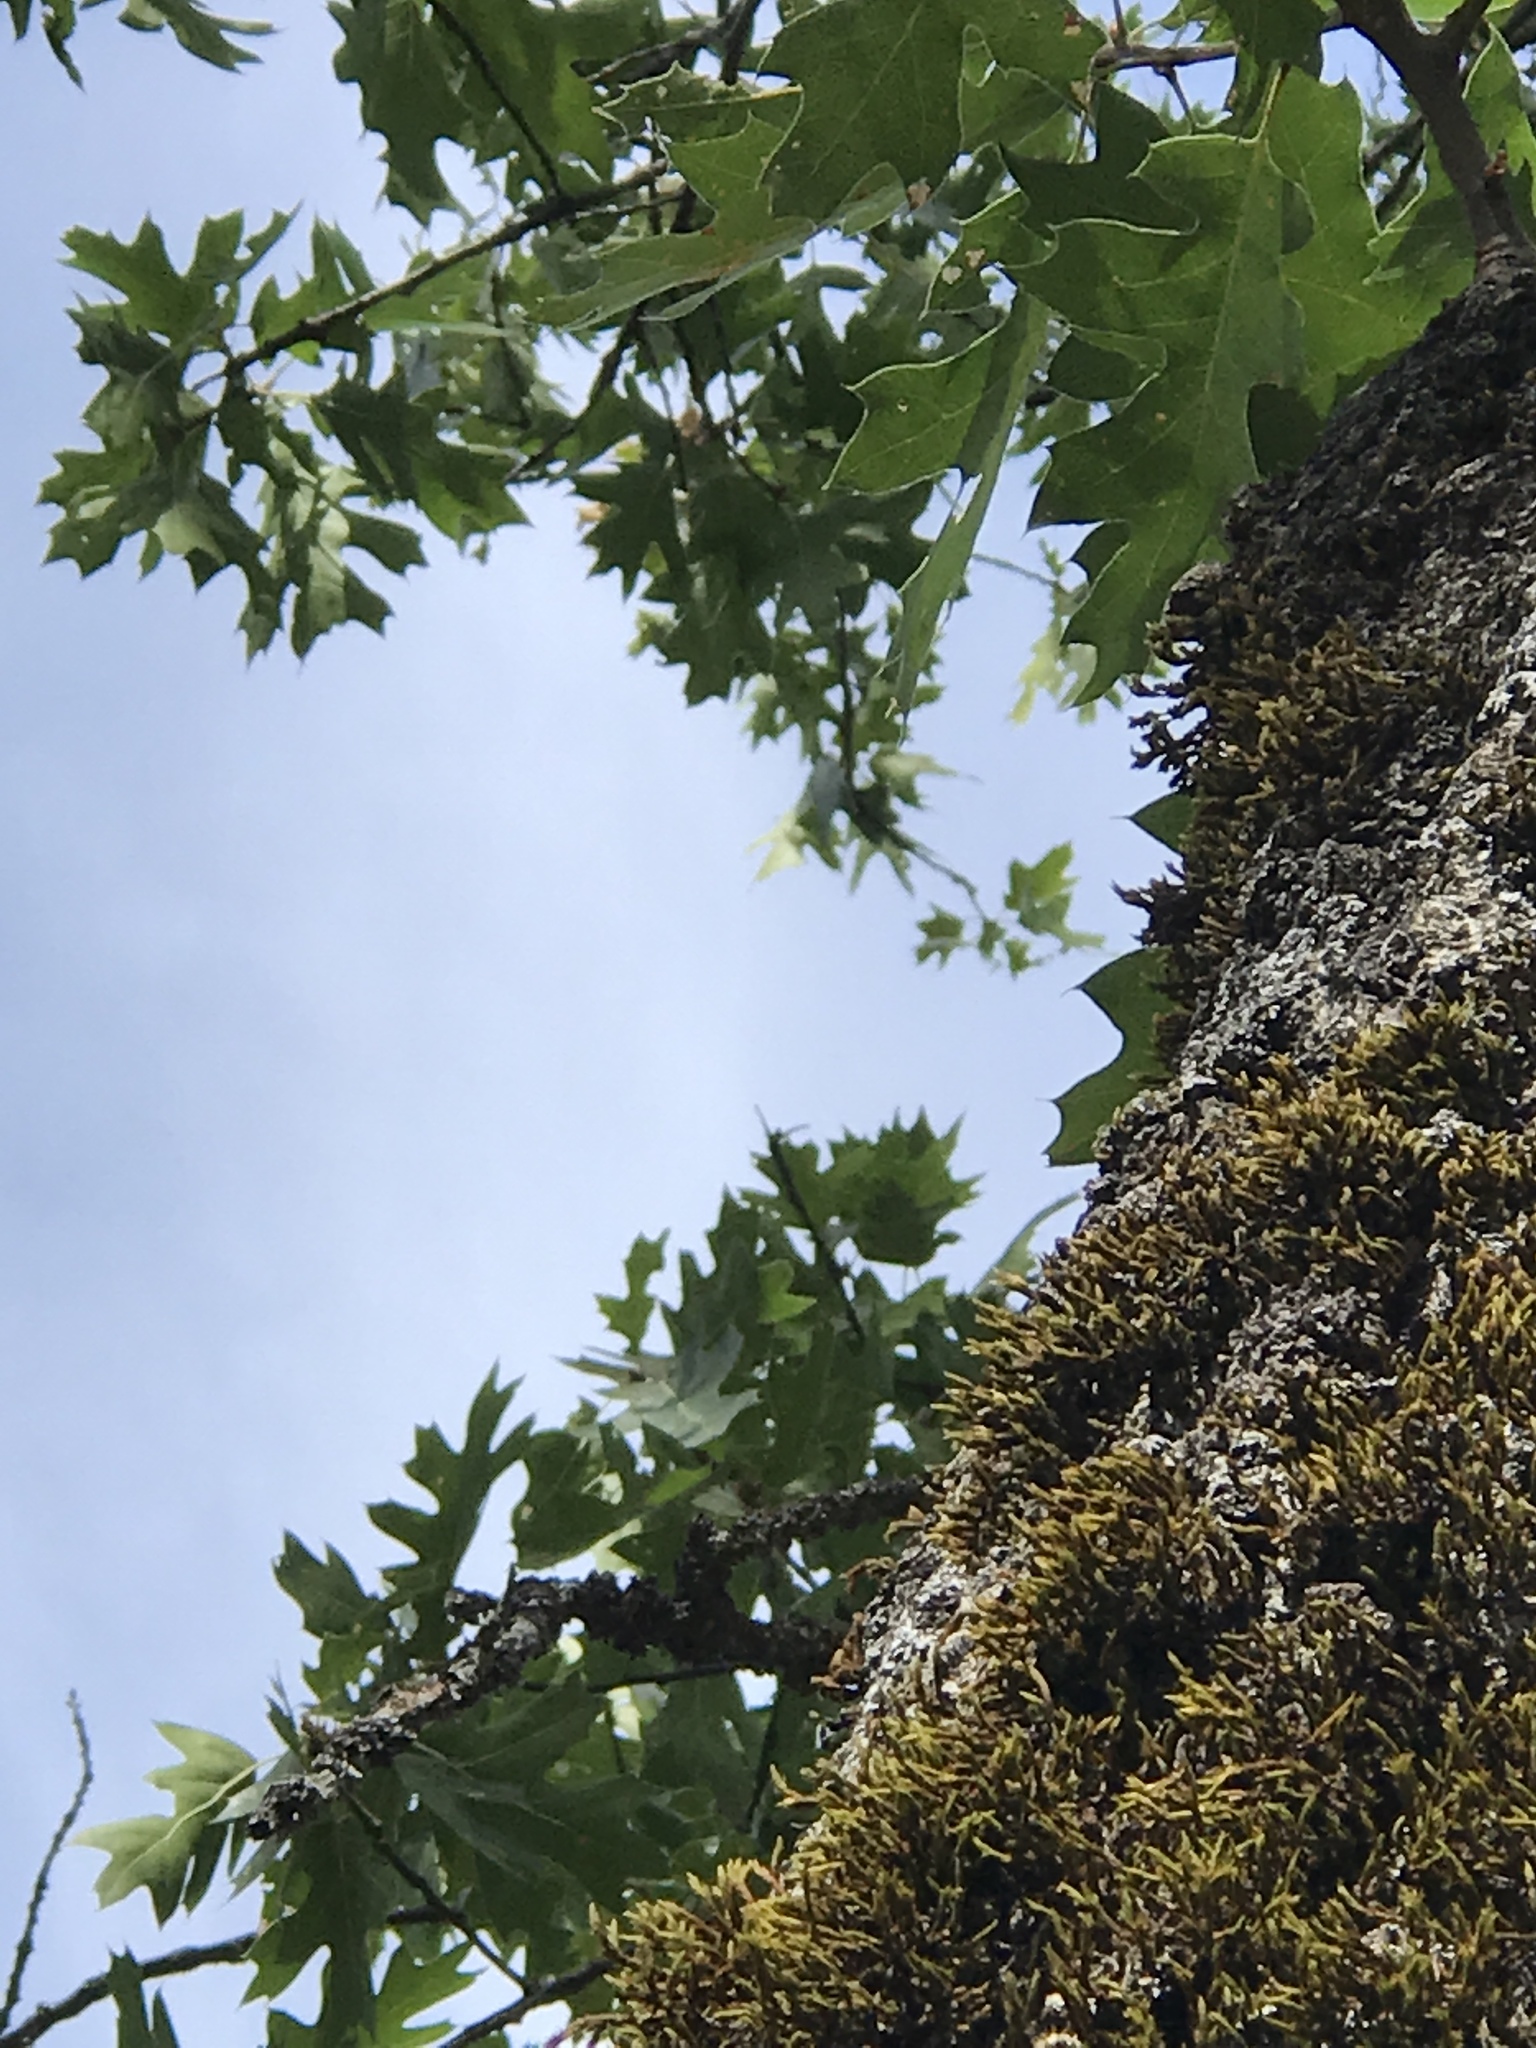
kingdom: Plantae
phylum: Tracheophyta
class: Magnoliopsida
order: Fagales
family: Fagaceae
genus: Quercus
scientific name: Quercus kelloggii
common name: California black oak
